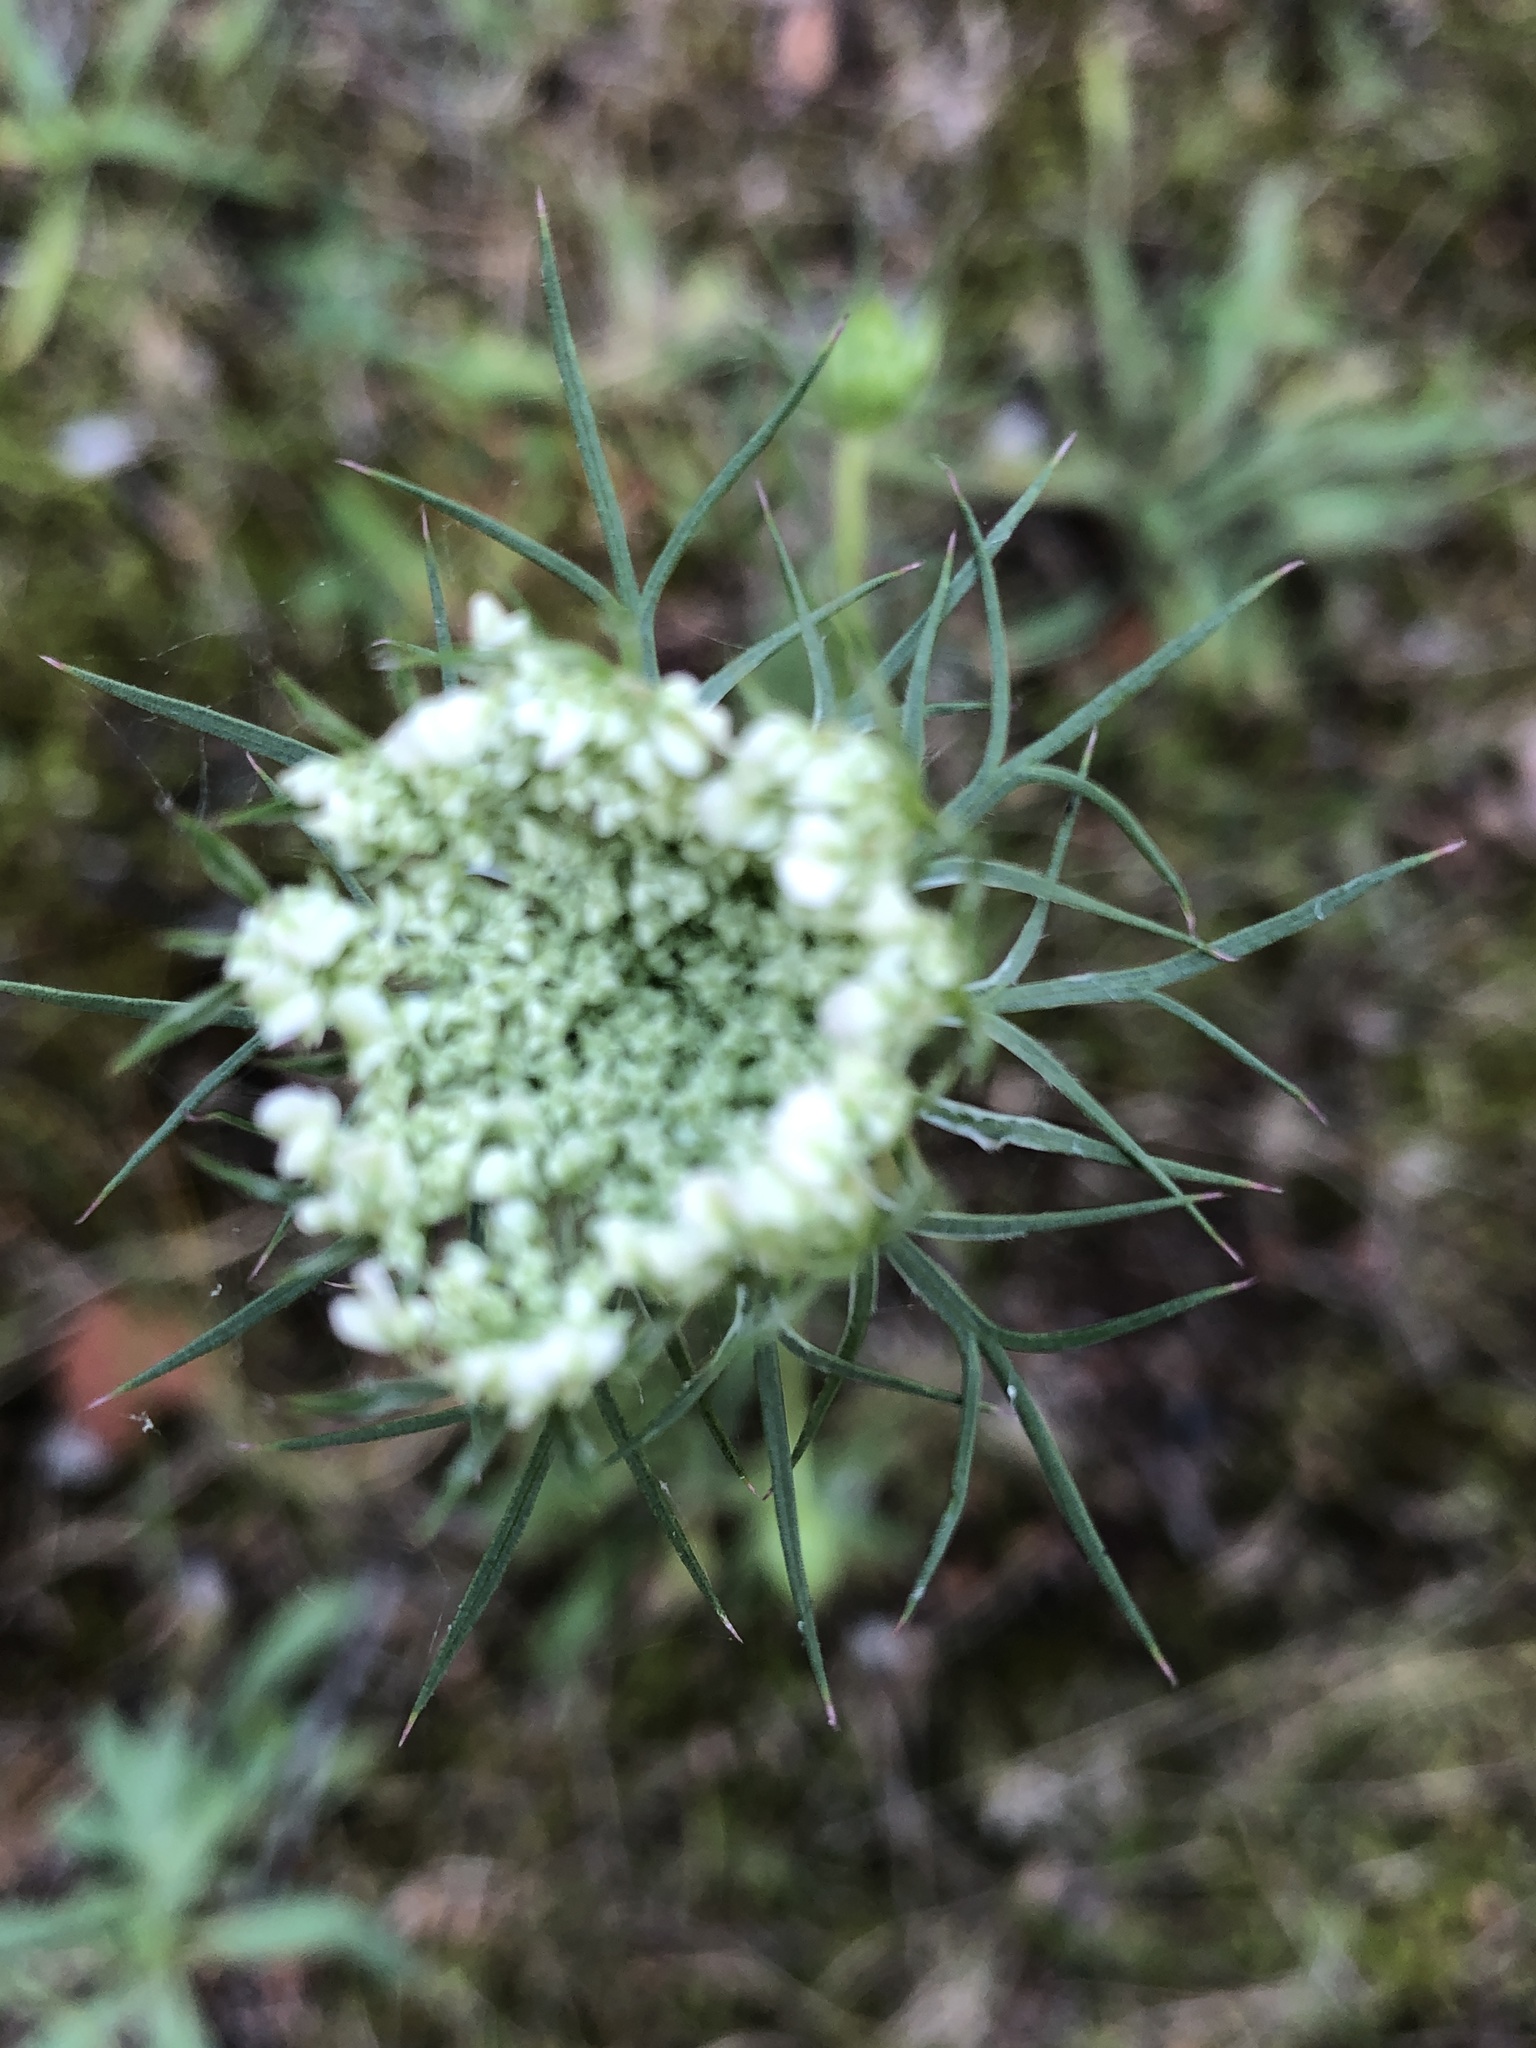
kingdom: Plantae
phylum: Tracheophyta
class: Magnoliopsida
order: Apiales
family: Apiaceae
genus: Daucus
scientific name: Daucus carota
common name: Wild carrot
